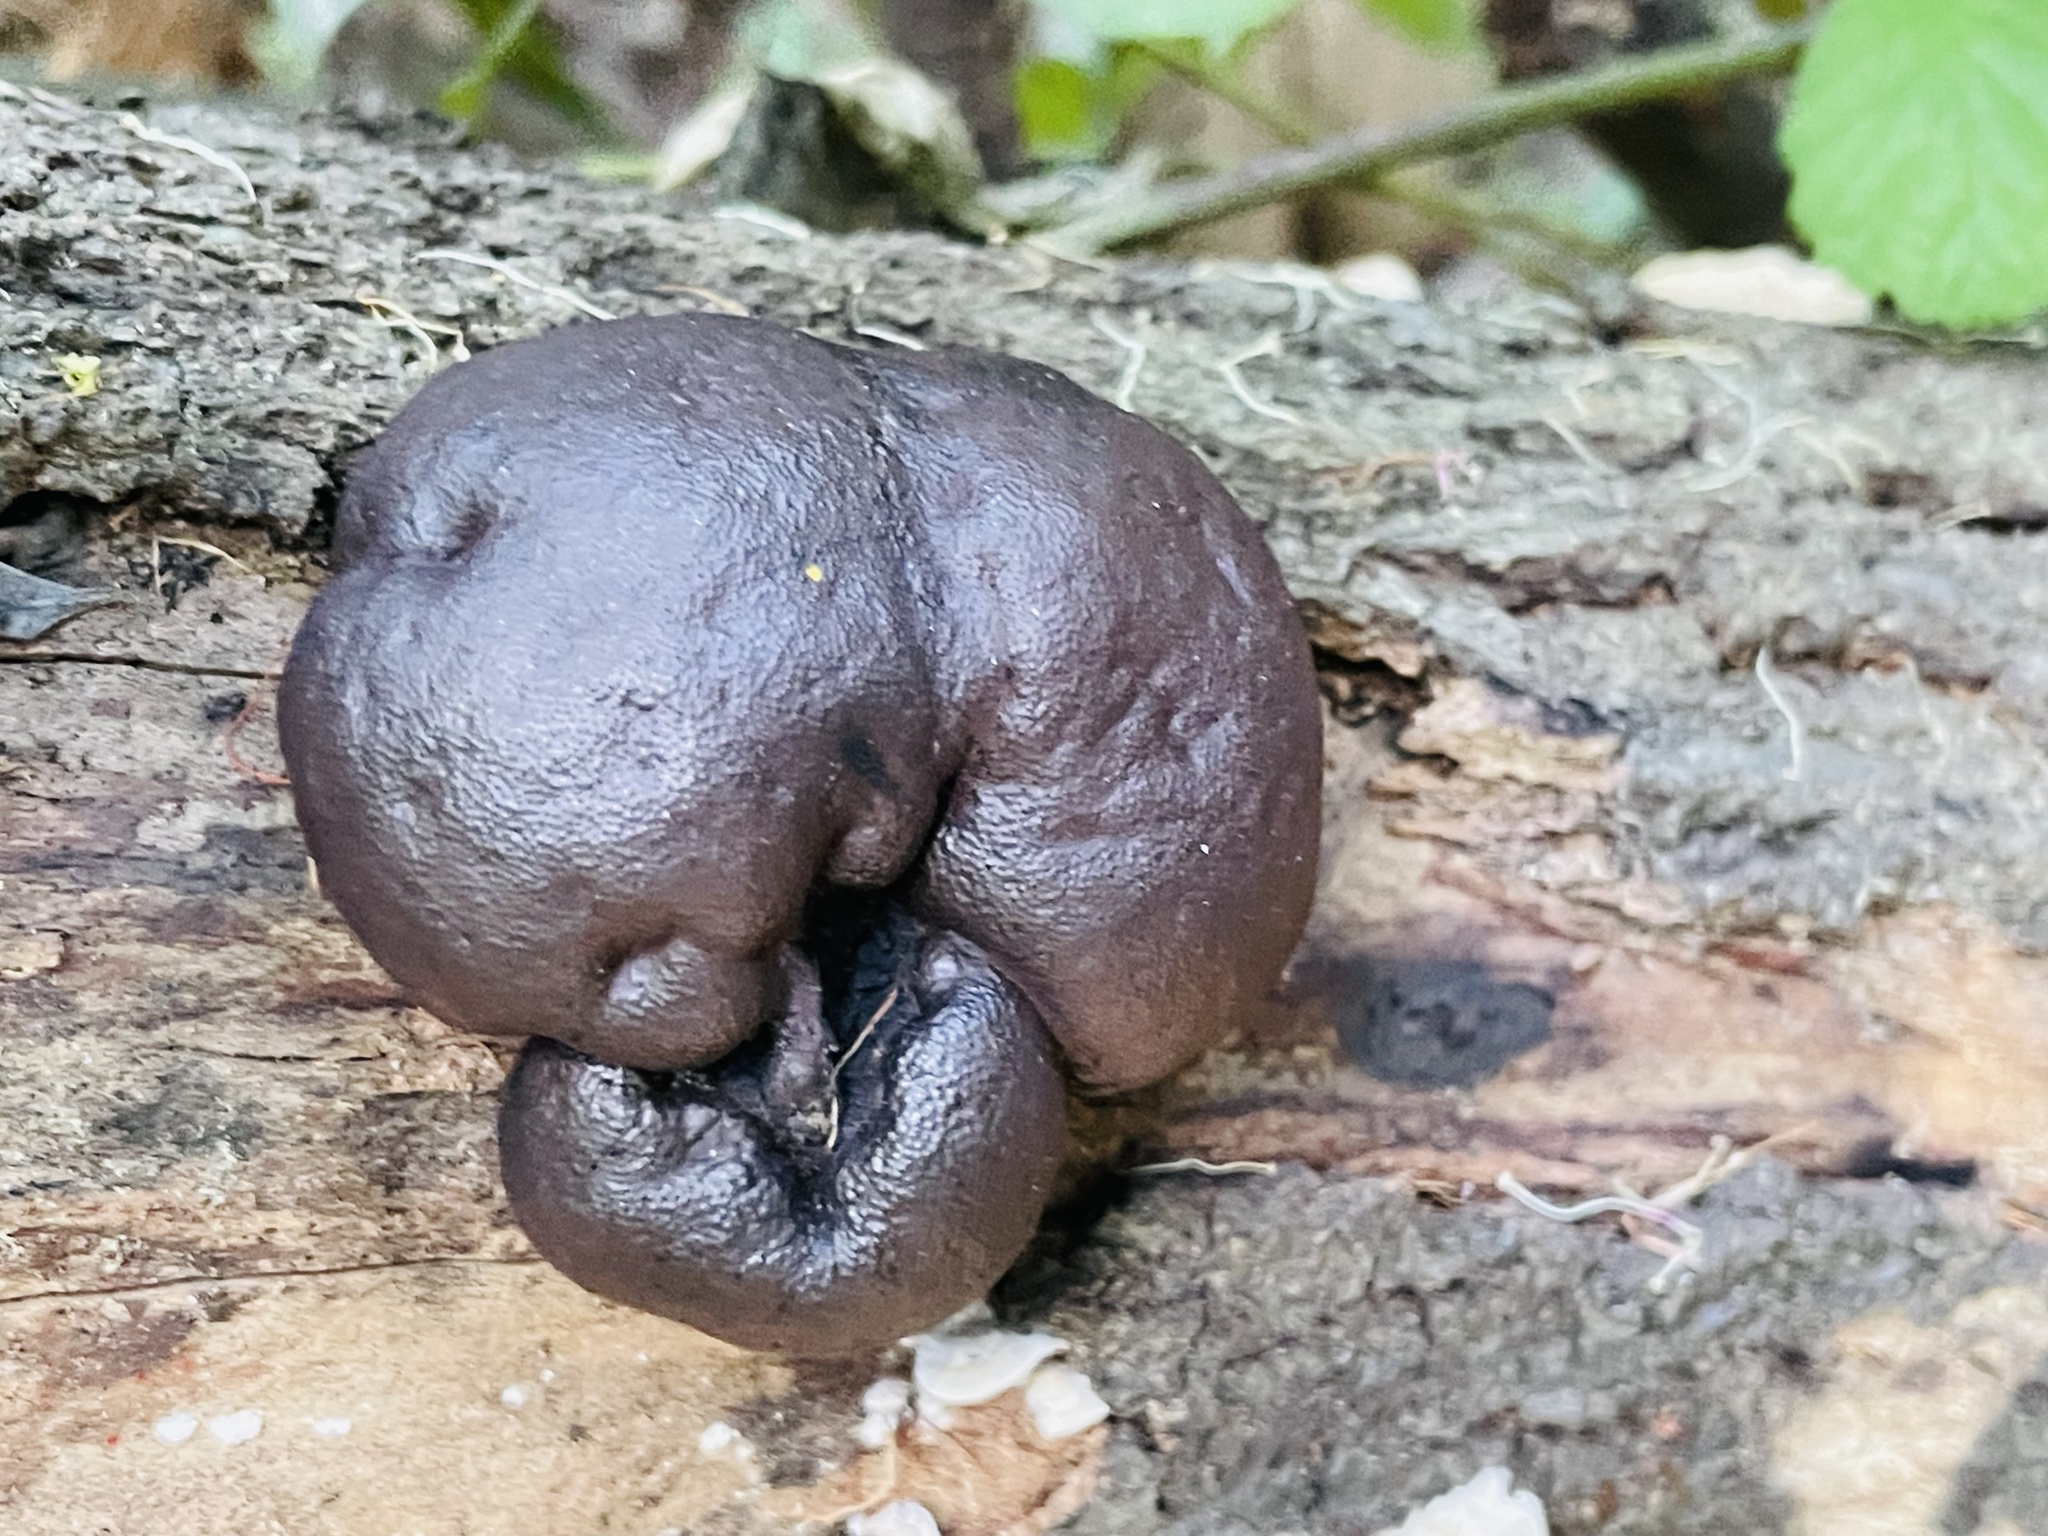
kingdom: Fungi
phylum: Ascomycota
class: Sordariomycetes
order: Xylariales
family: Hypoxylaceae
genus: Daldinia
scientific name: Daldinia concentrica
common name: Cramp balls
